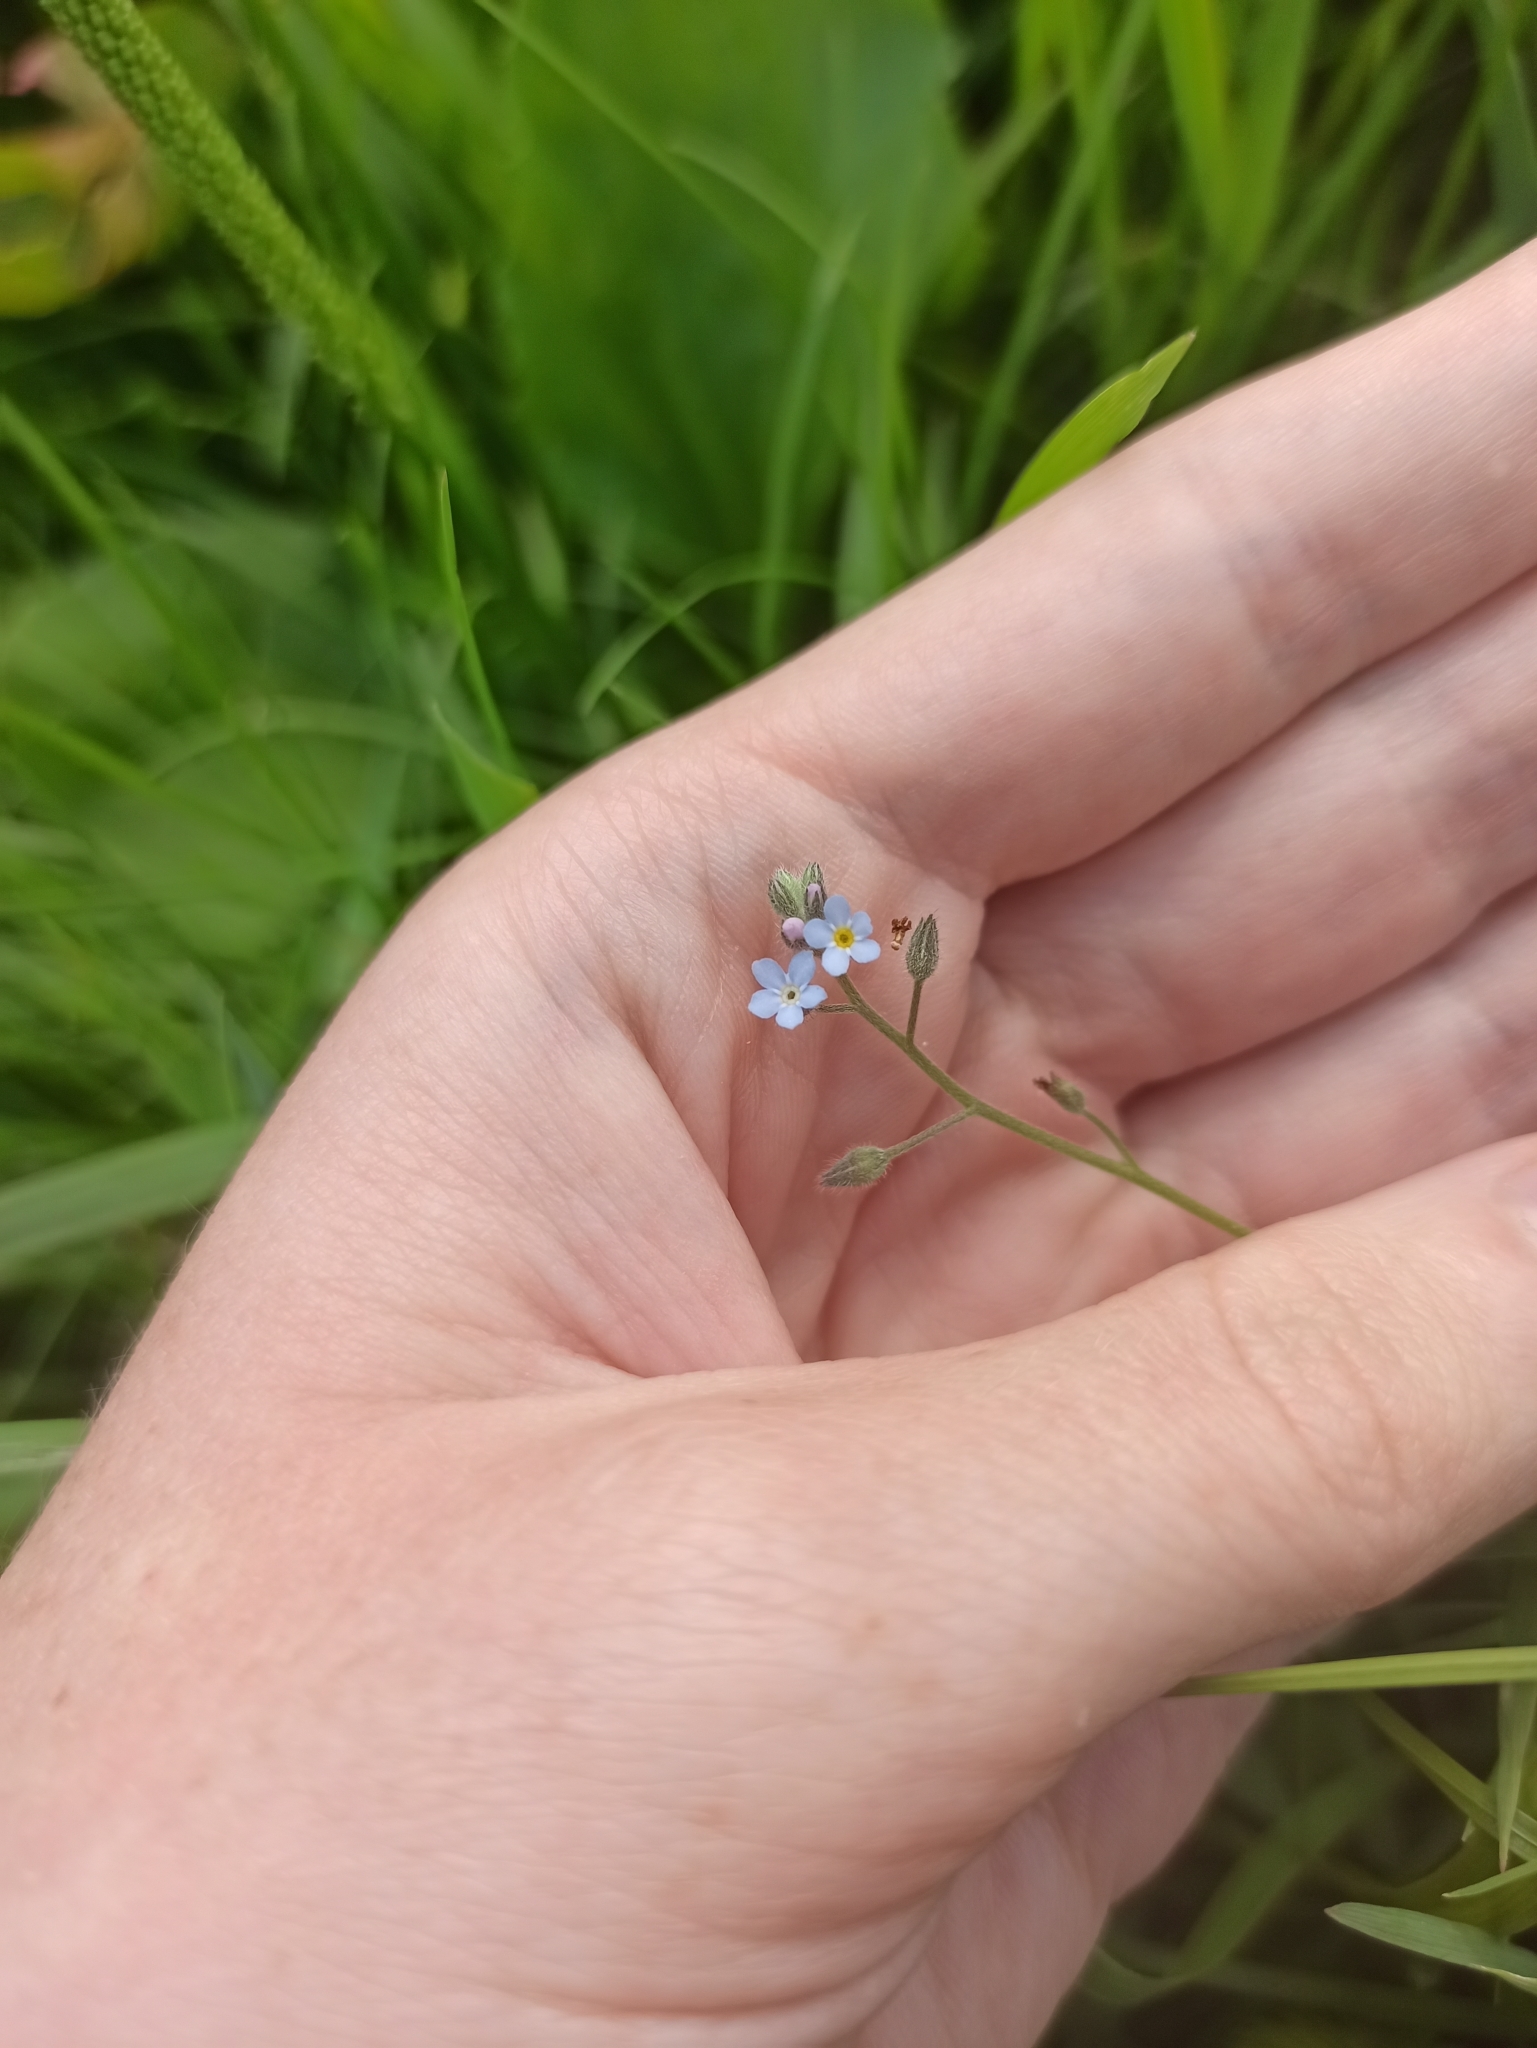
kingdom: Plantae
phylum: Tracheophyta
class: Magnoliopsida
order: Boraginales
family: Boraginaceae
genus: Myosotis
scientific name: Myosotis arvensis
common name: Field forget-me-not
